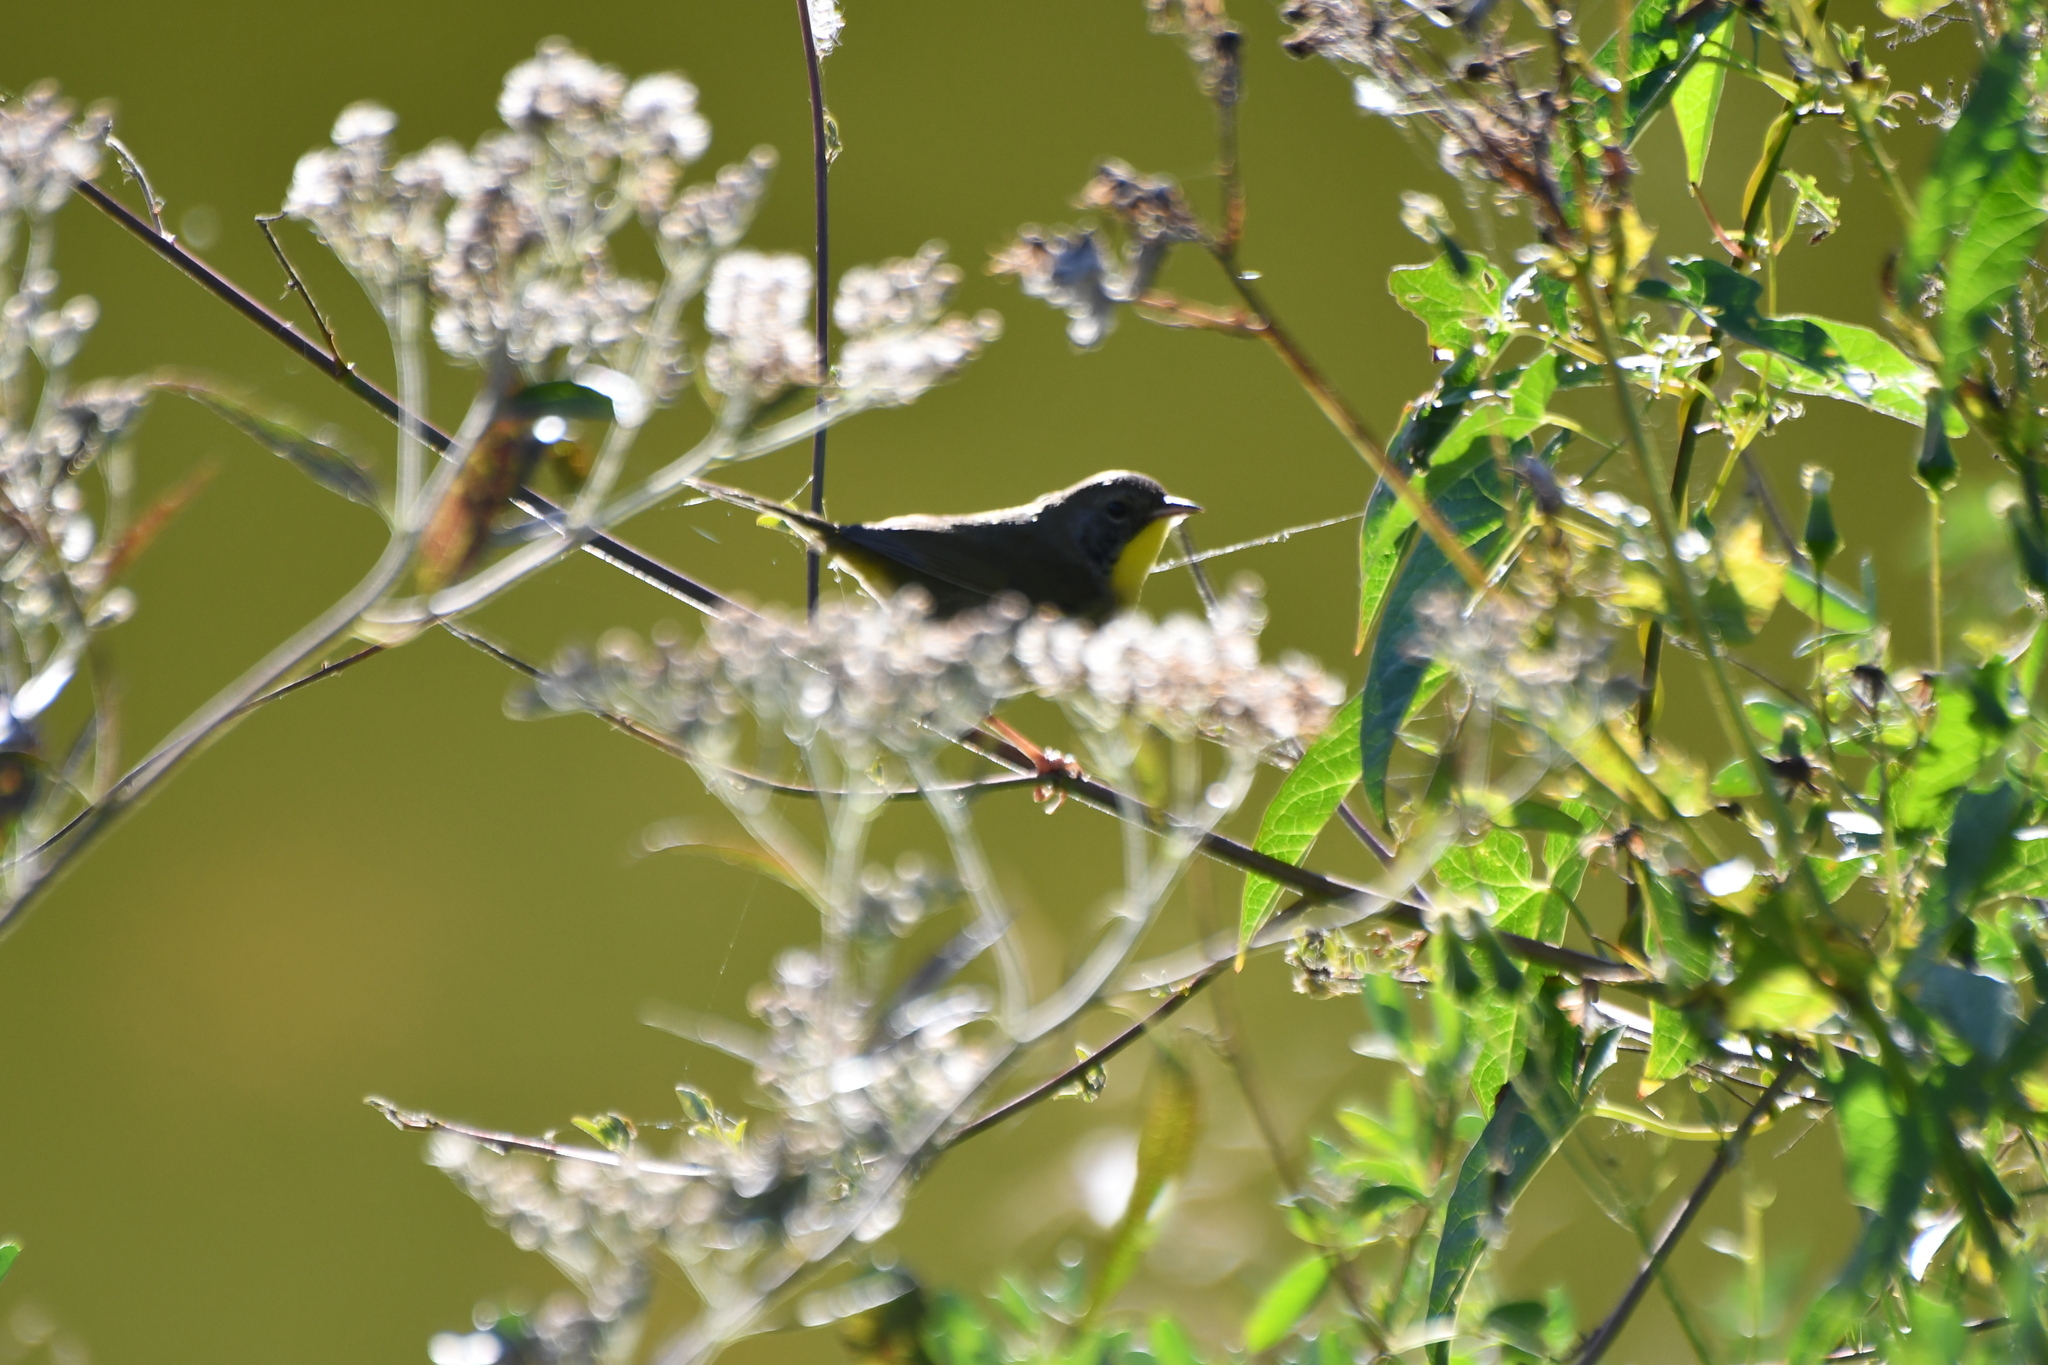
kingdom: Animalia
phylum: Chordata
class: Aves
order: Passeriformes
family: Parulidae
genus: Geothlypis
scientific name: Geothlypis trichas
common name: Common yellowthroat
